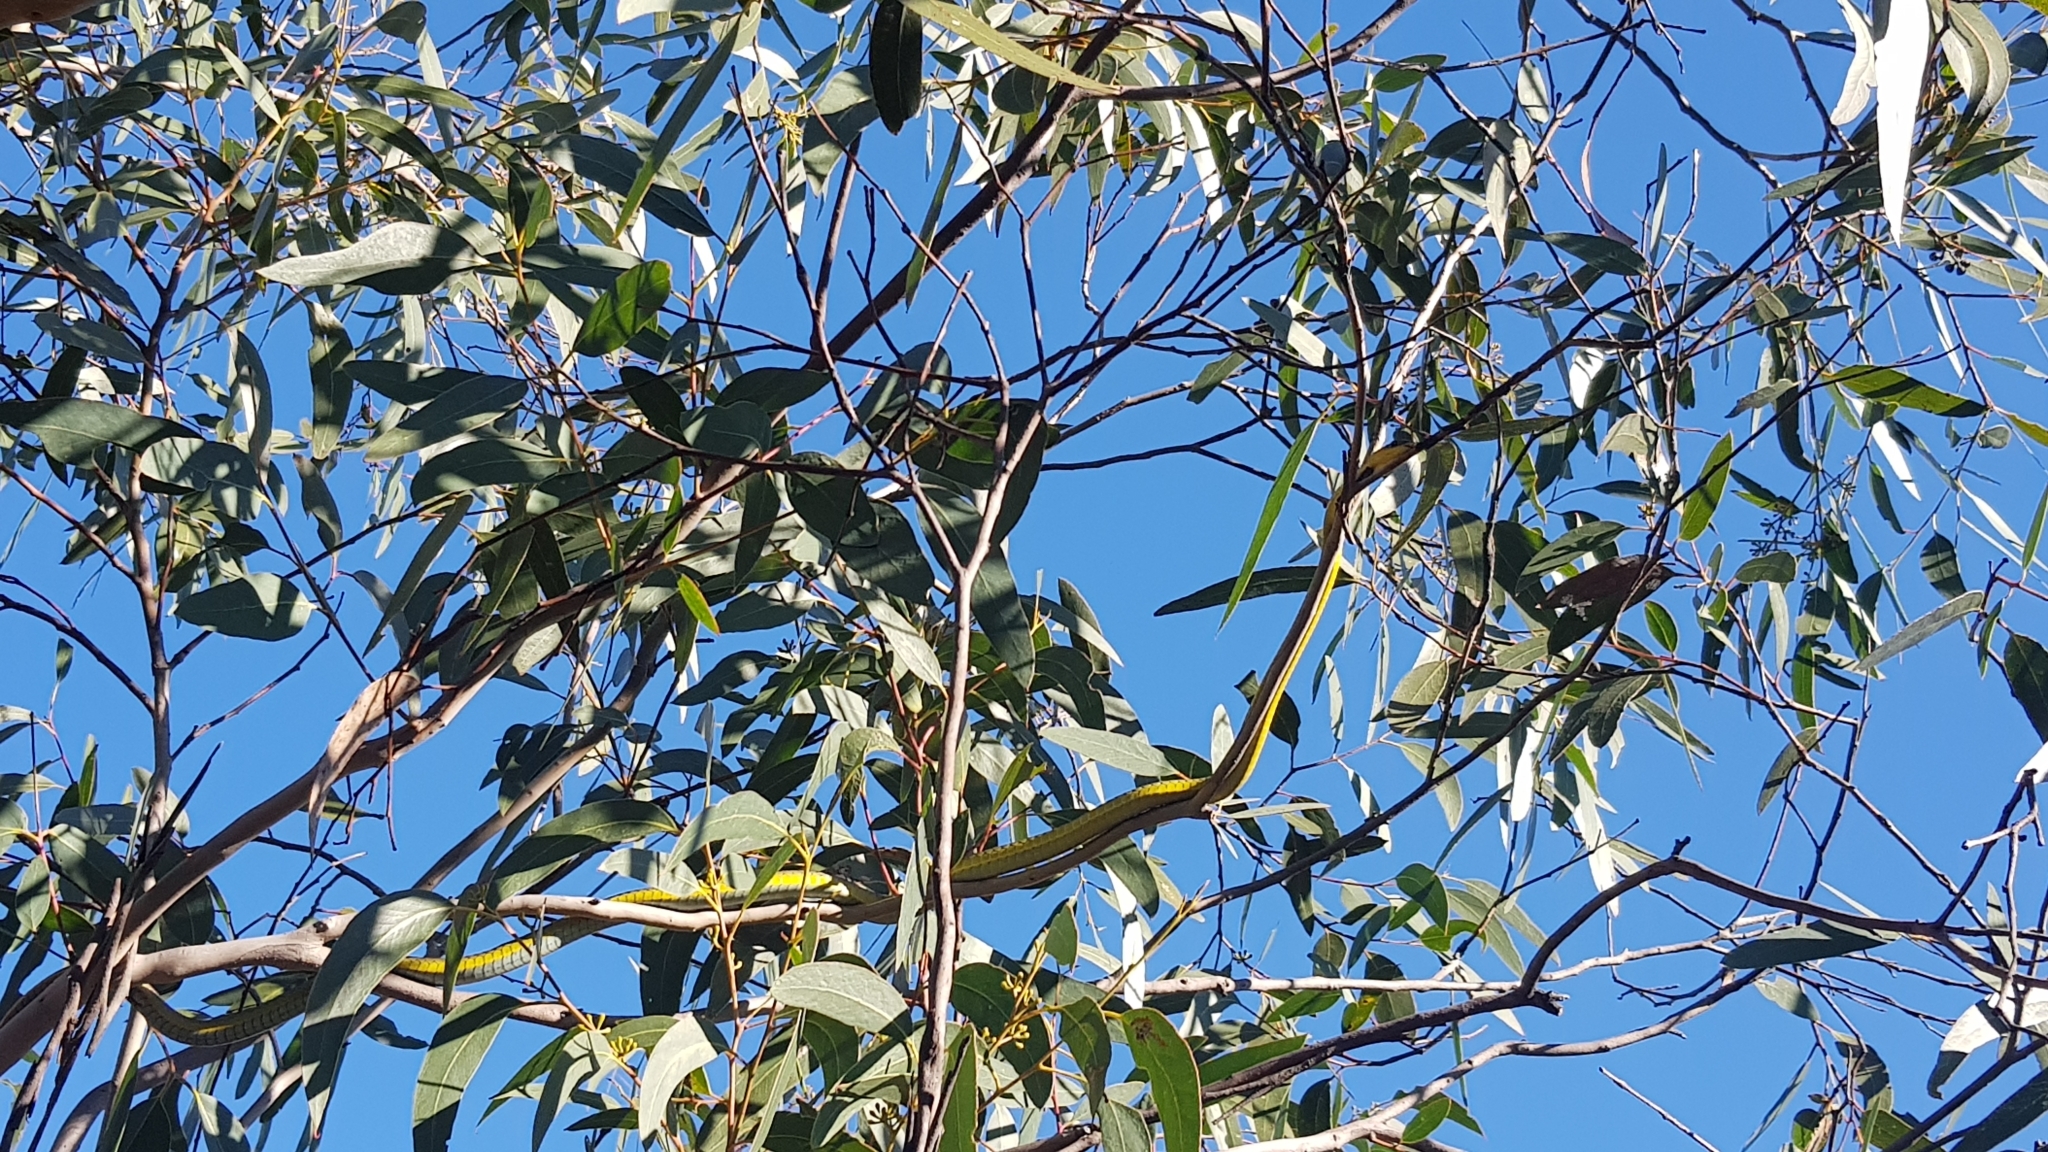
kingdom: Animalia
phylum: Chordata
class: Squamata
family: Colubridae
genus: Dendrelaphis
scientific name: Dendrelaphis punctulatus
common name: Common tree snake
